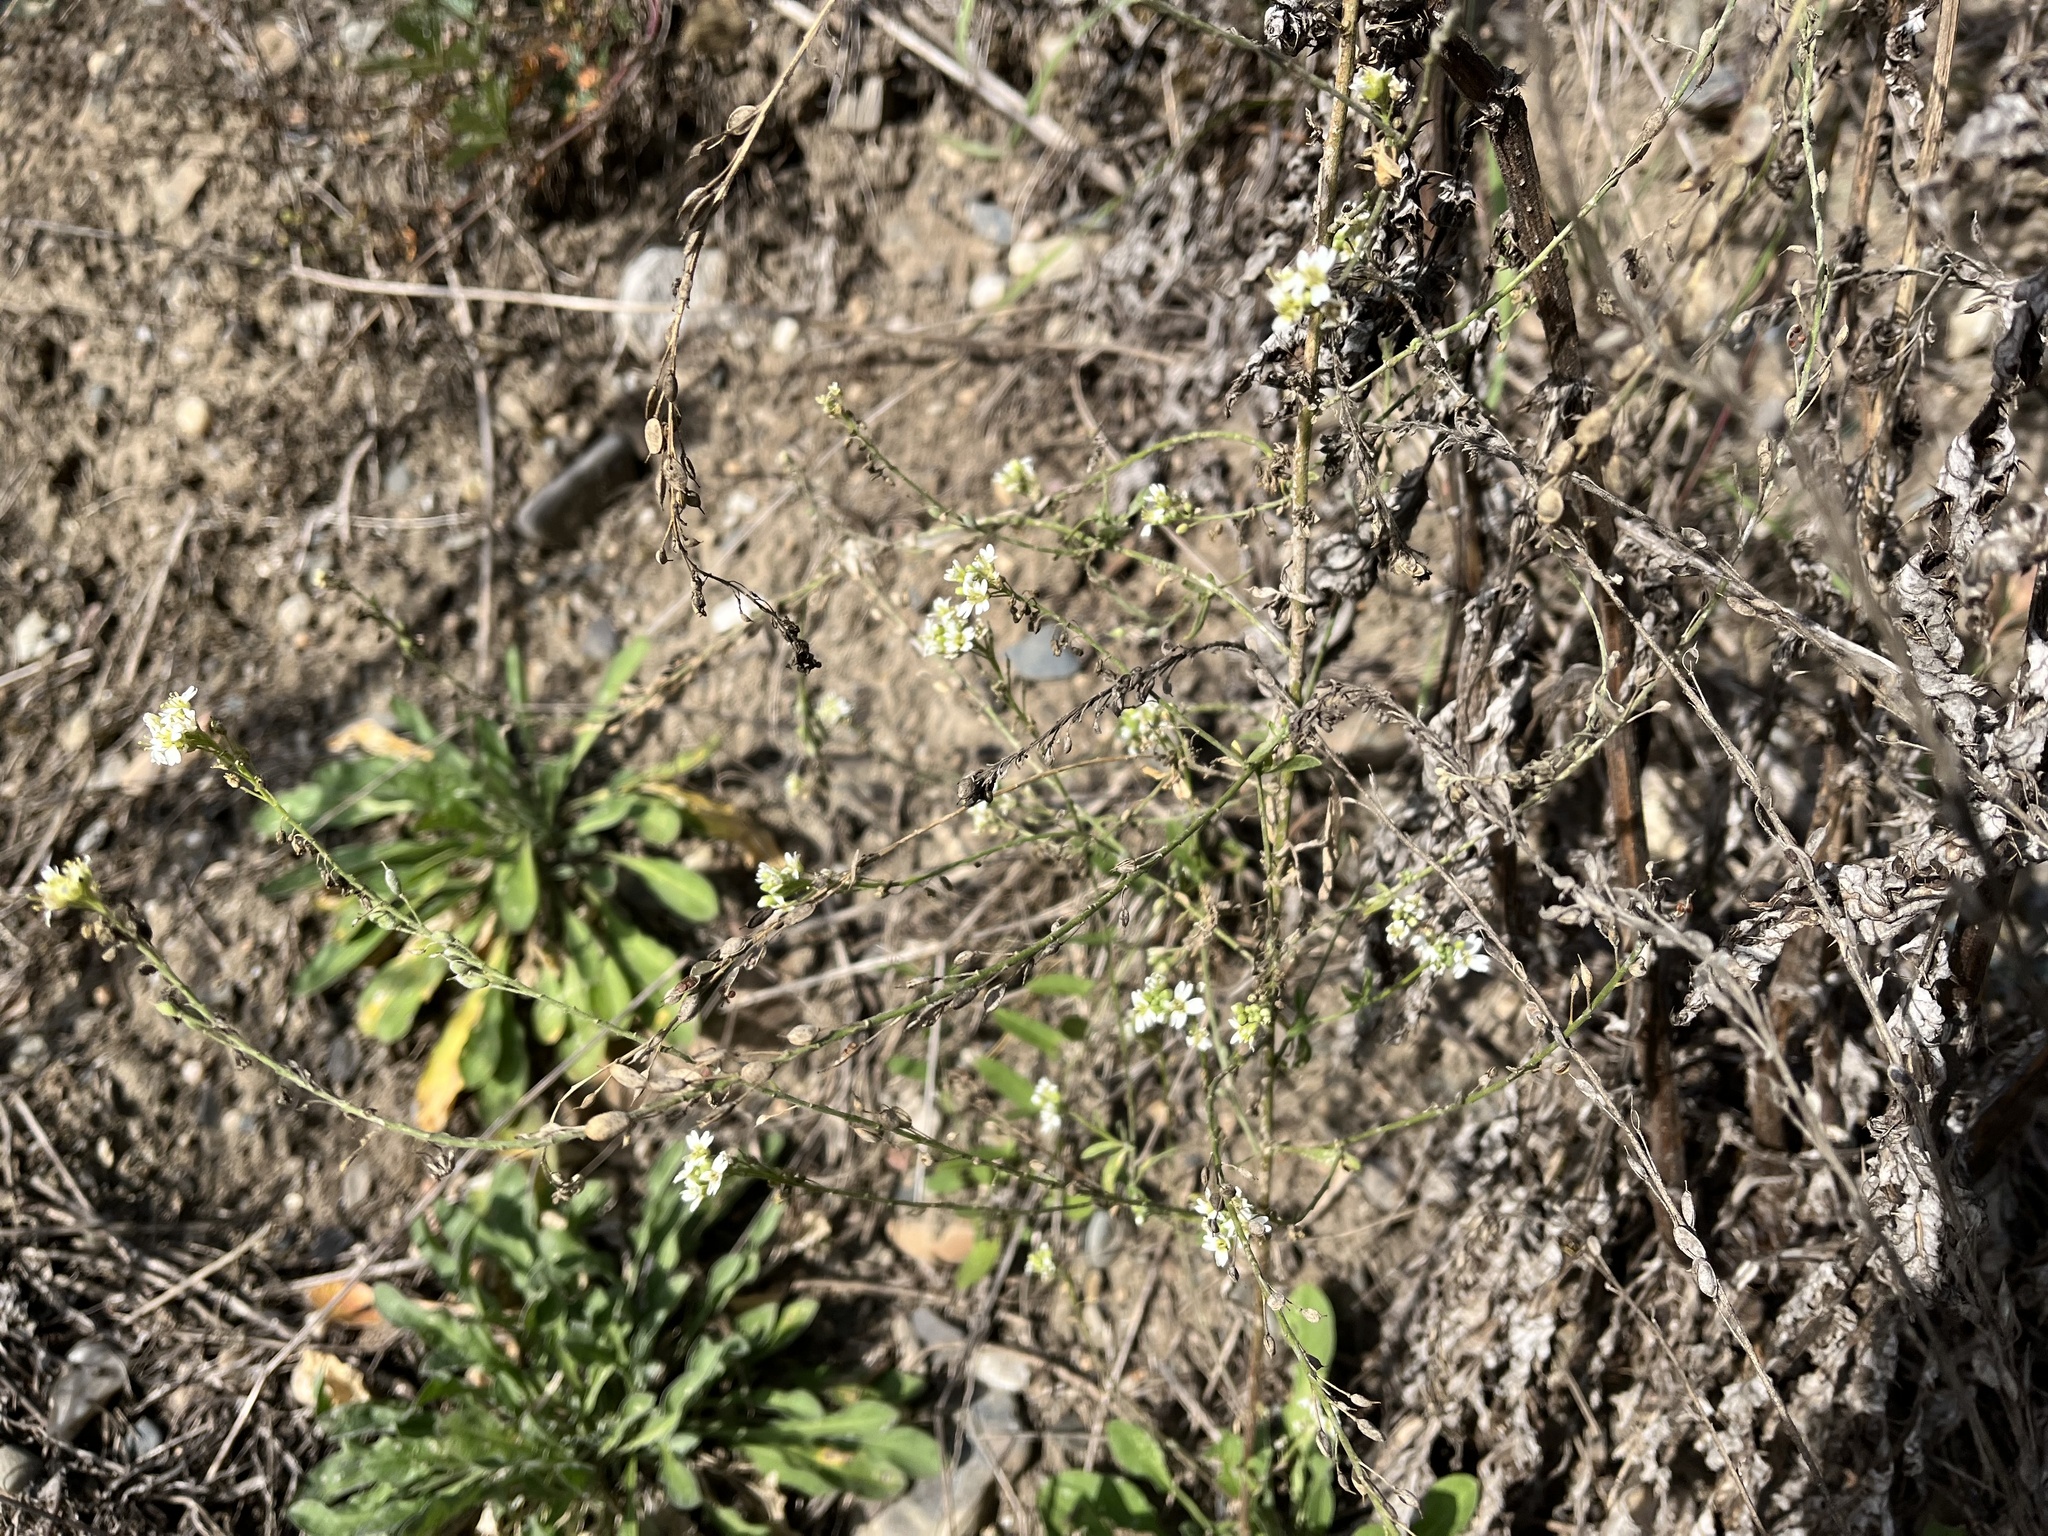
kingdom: Plantae
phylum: Tracheophyta
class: Magnoliopsida
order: Brassicales
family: Brassicaceae
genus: Berteroa
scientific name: Berteroa incana
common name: Hoary alison
